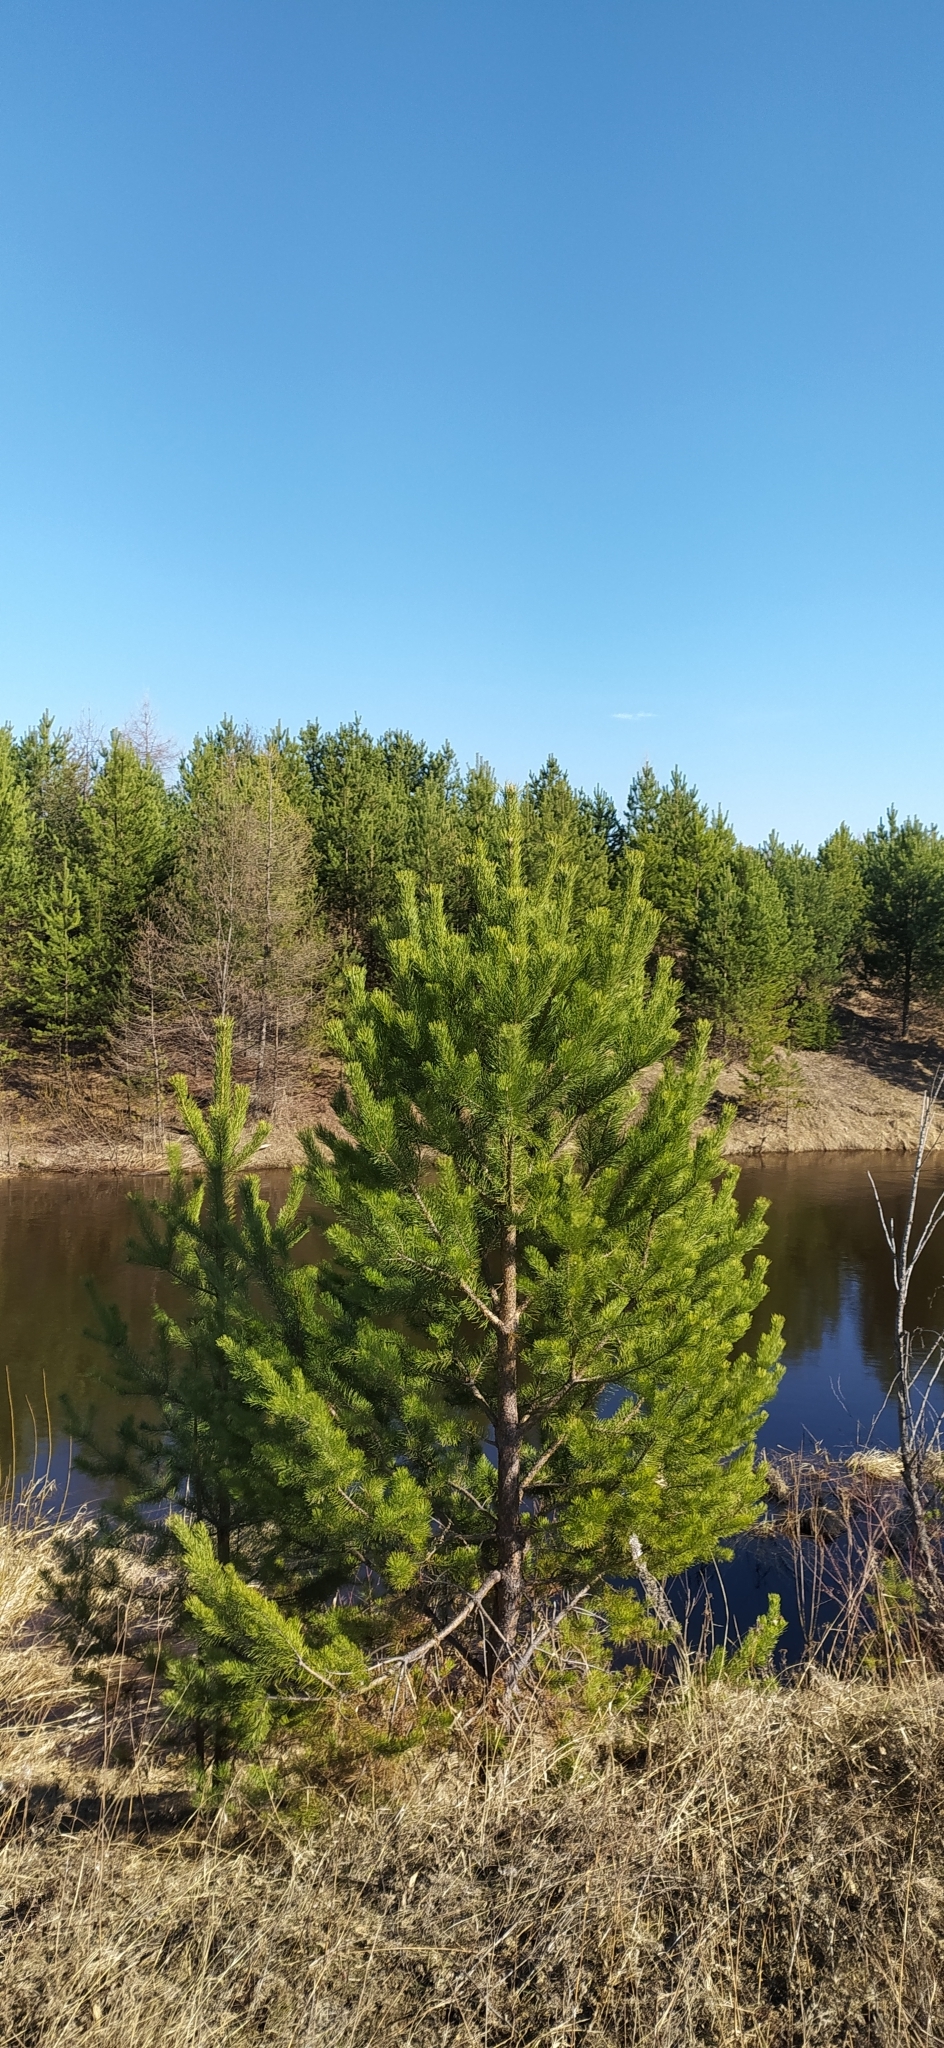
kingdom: Plantae
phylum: Tracheophyta
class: Pinopsida
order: Pinales
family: Pinaceae
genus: Pinus
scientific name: Pinus sylvestris
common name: Scots pine
